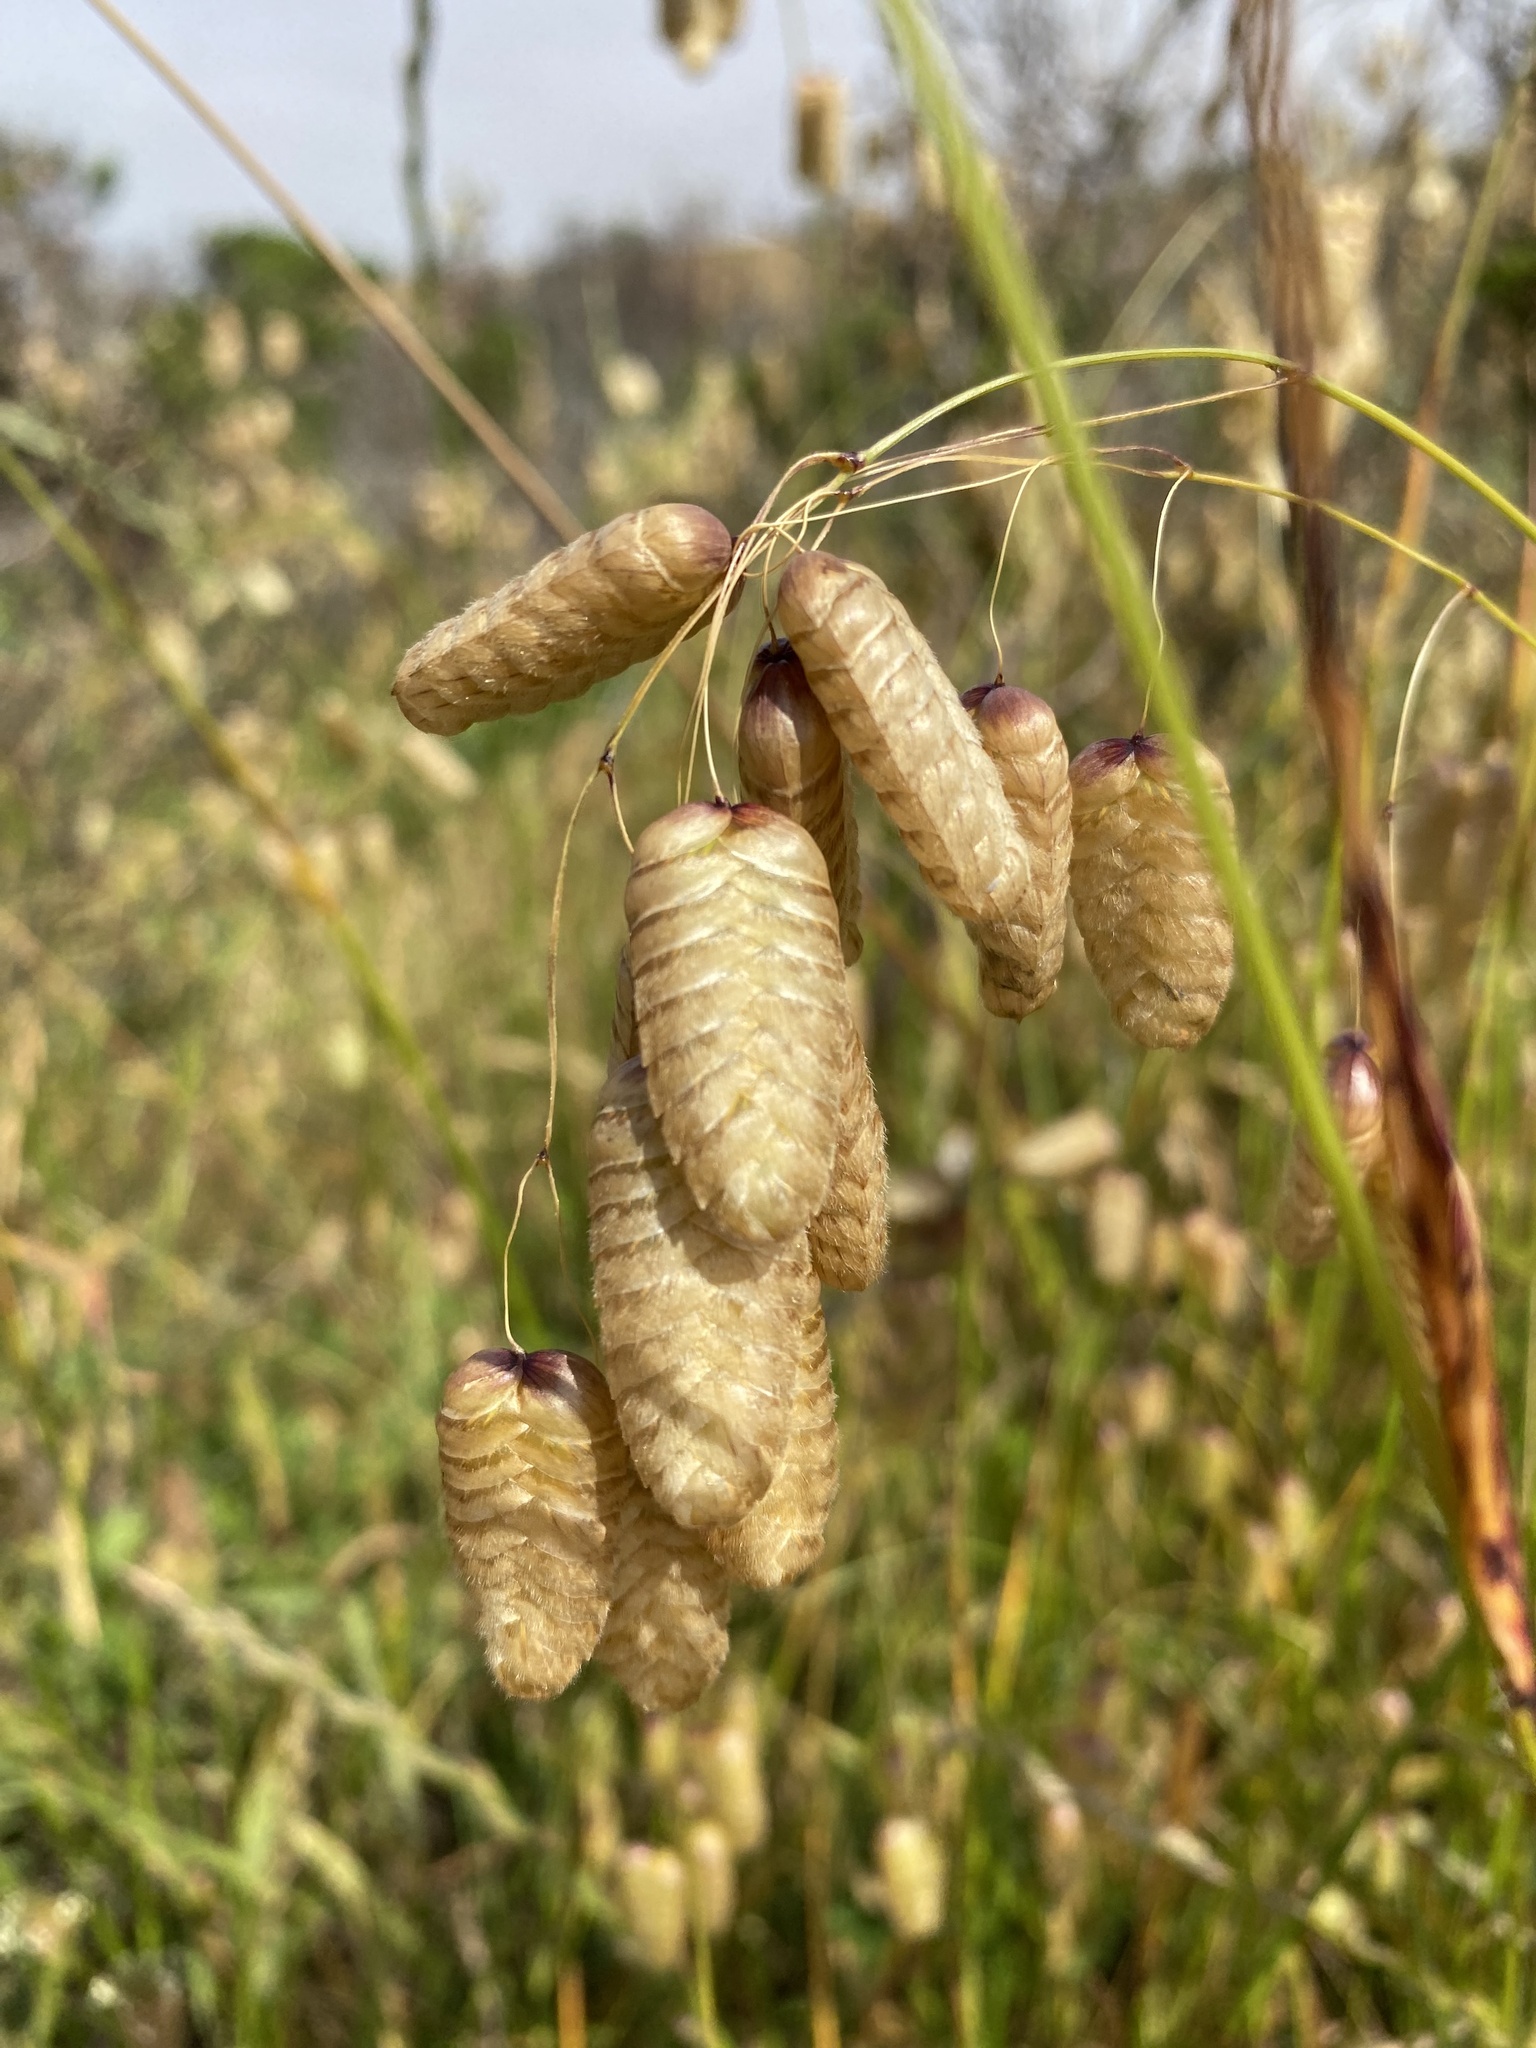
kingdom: Plantae
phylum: Tracheophyta
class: Liliopsida
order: Poales
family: Poaceae
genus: Briza
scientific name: Briza maxima
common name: Big quakinggrass
